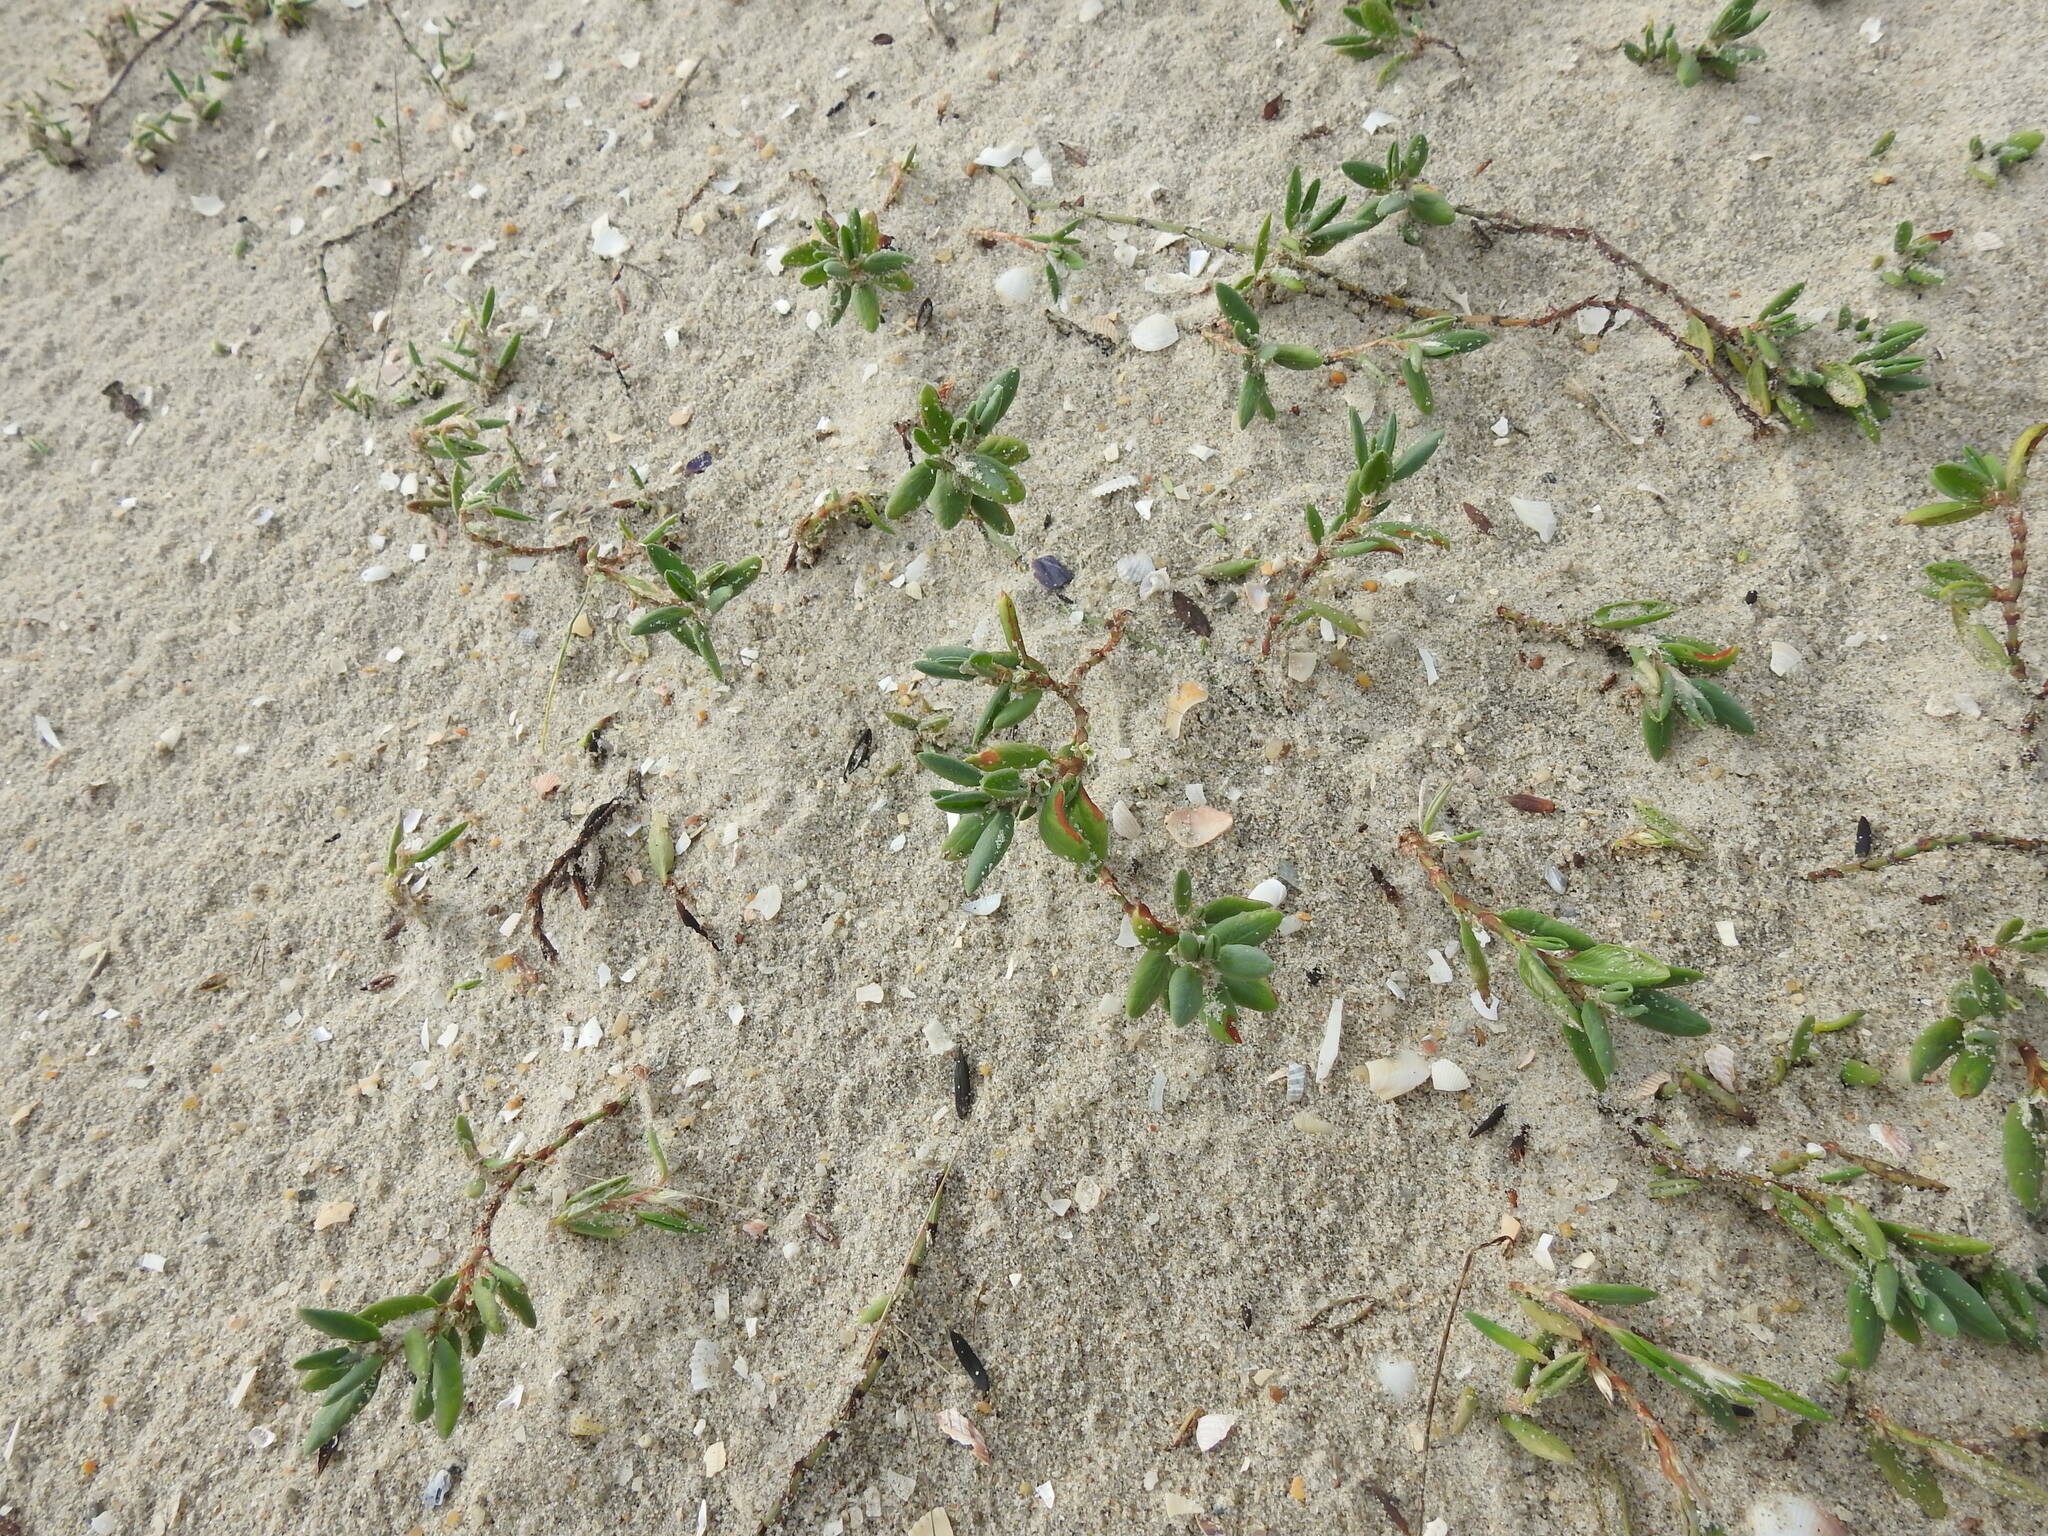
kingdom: Plantae
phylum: Tracheophyta
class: Magnoliopsida
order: Caryophyllales
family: Polygonaceae
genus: Polygonum
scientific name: Polygonum maritimum
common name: Sea knotgrass
